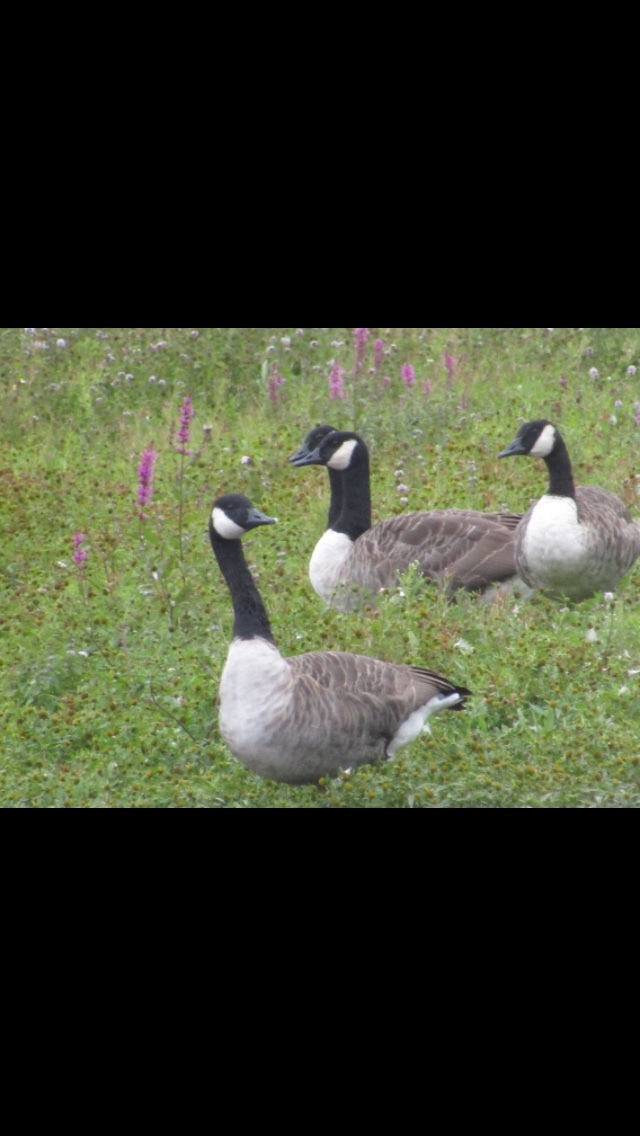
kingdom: Animalia
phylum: Chordata
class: Aves
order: Anseriformes
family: Anatidae
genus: Branta
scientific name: Branta canadensis
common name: Canada goose
